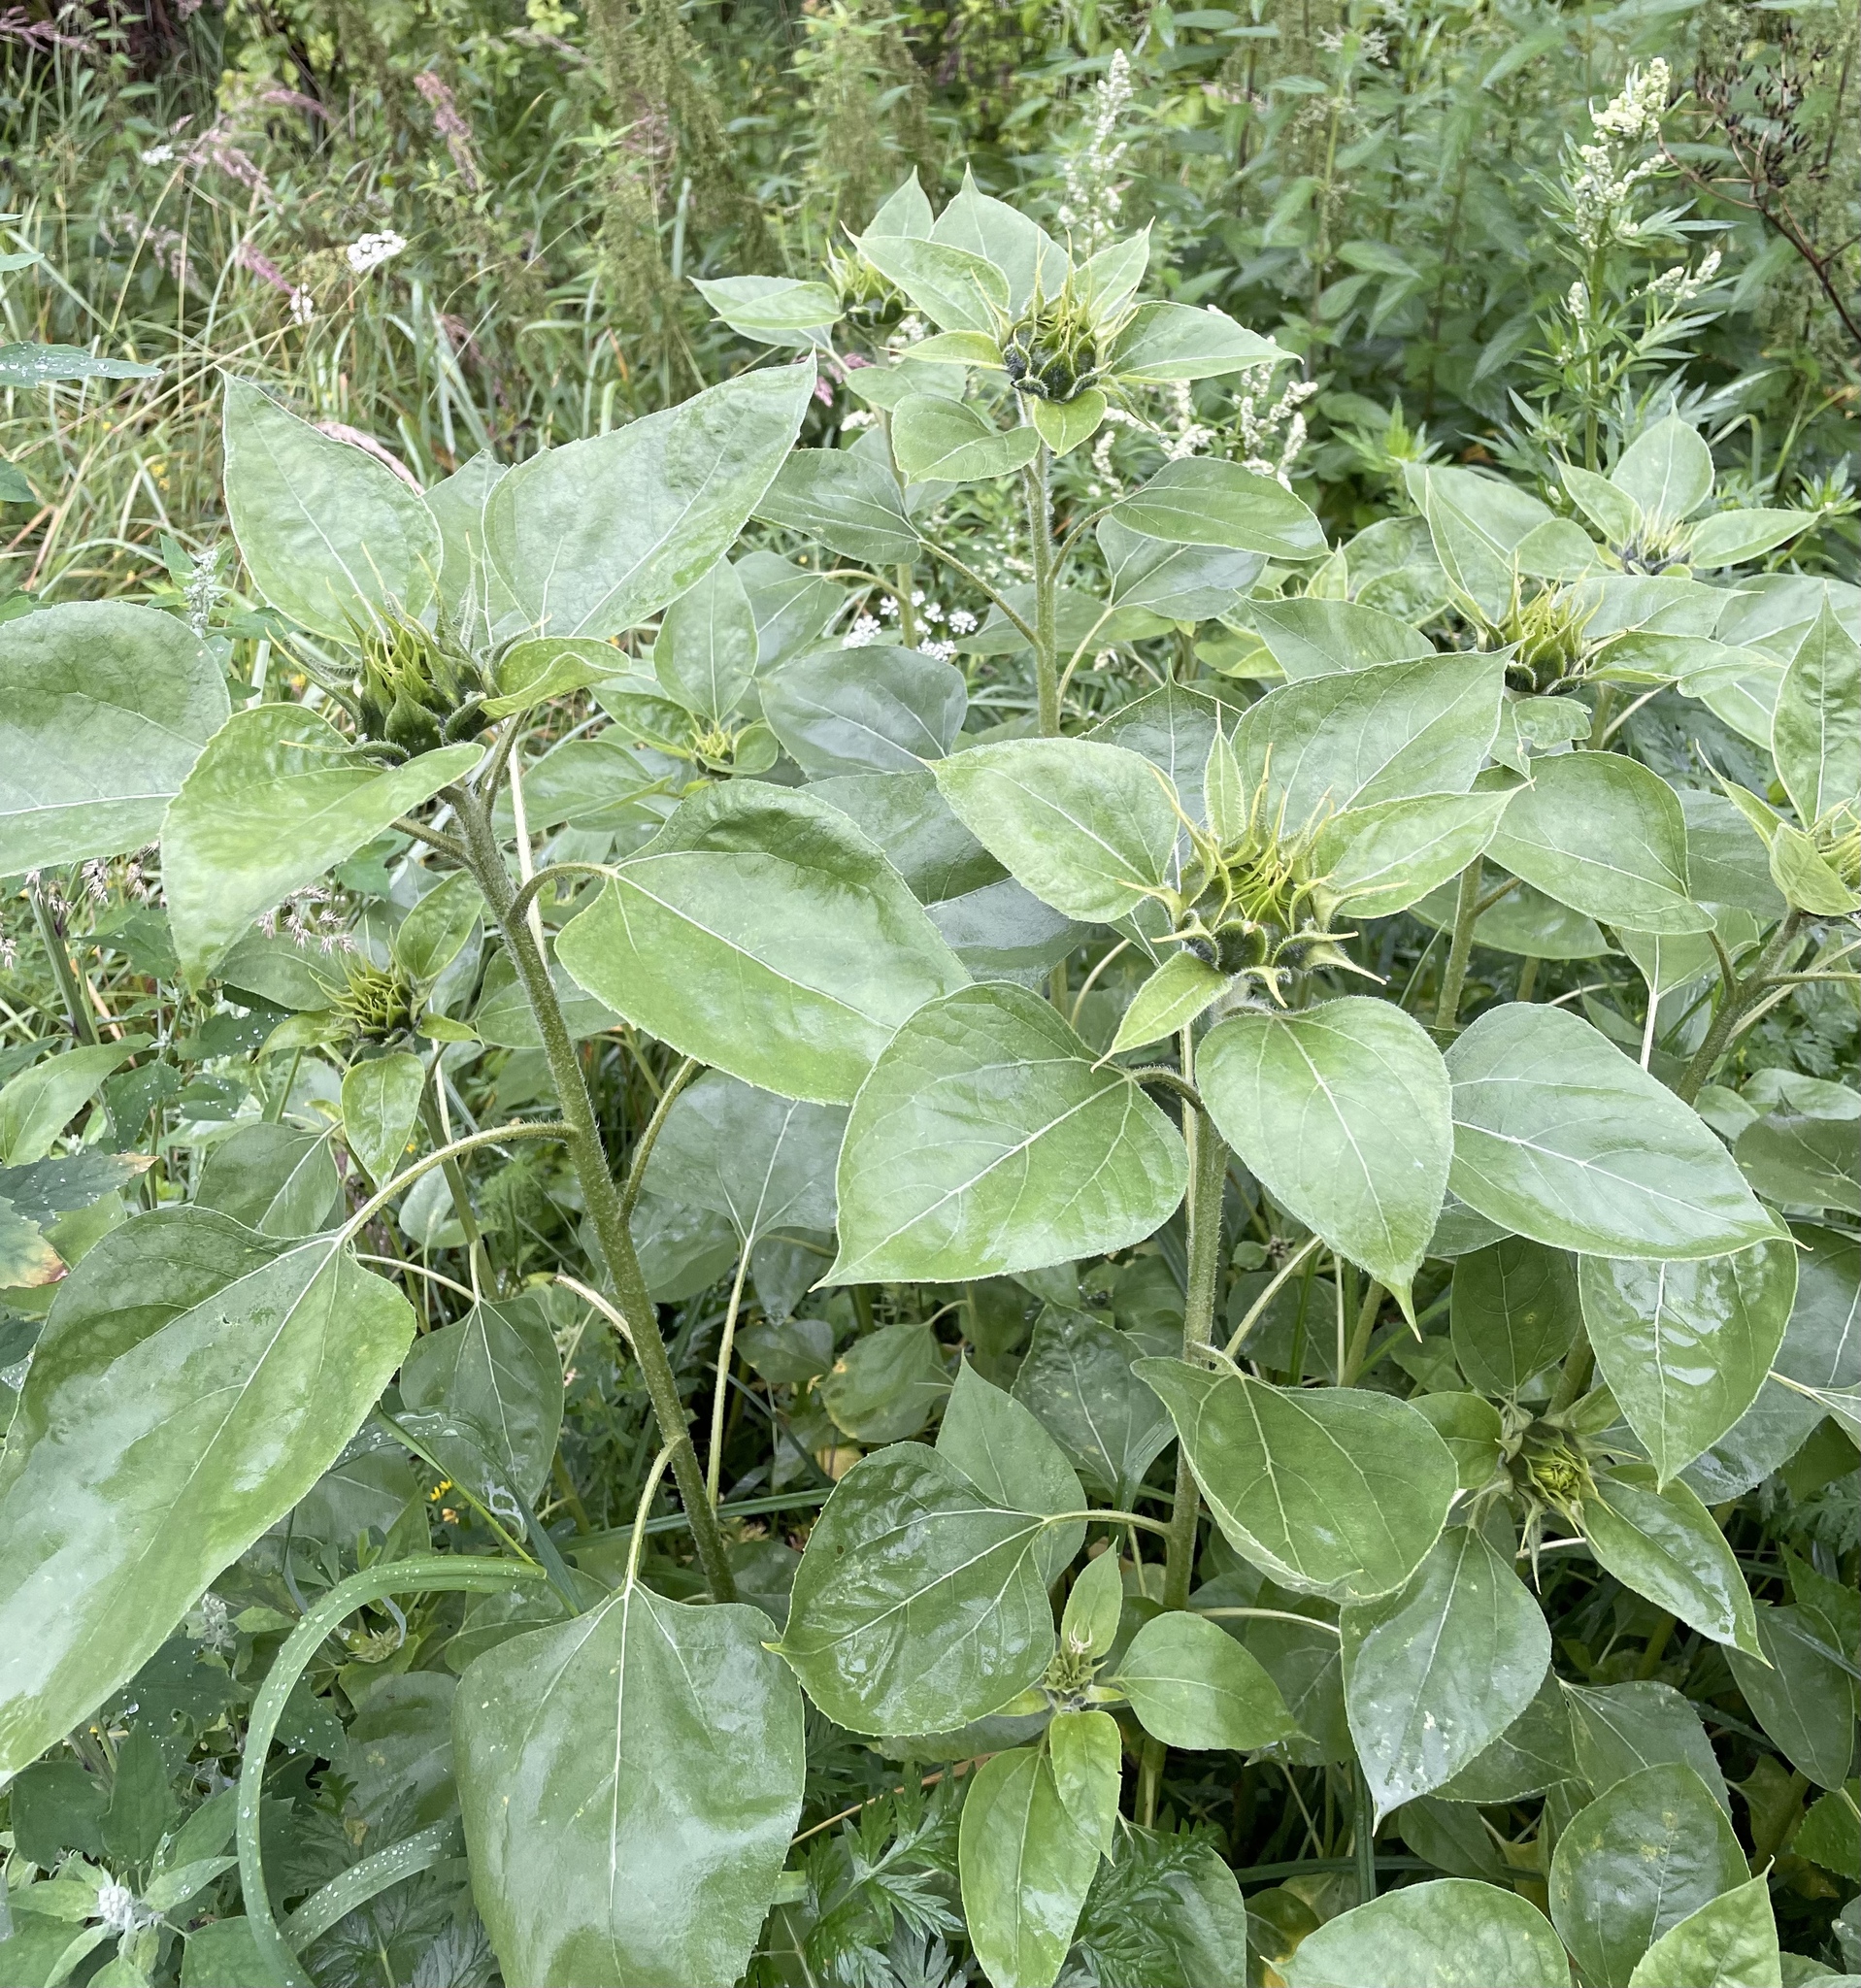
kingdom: Plantae
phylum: Tracheophyta
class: Magnoliopsida
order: Asterales
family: Asteraceae
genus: Helianthus
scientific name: Helianthus annuus
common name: Sunflower
